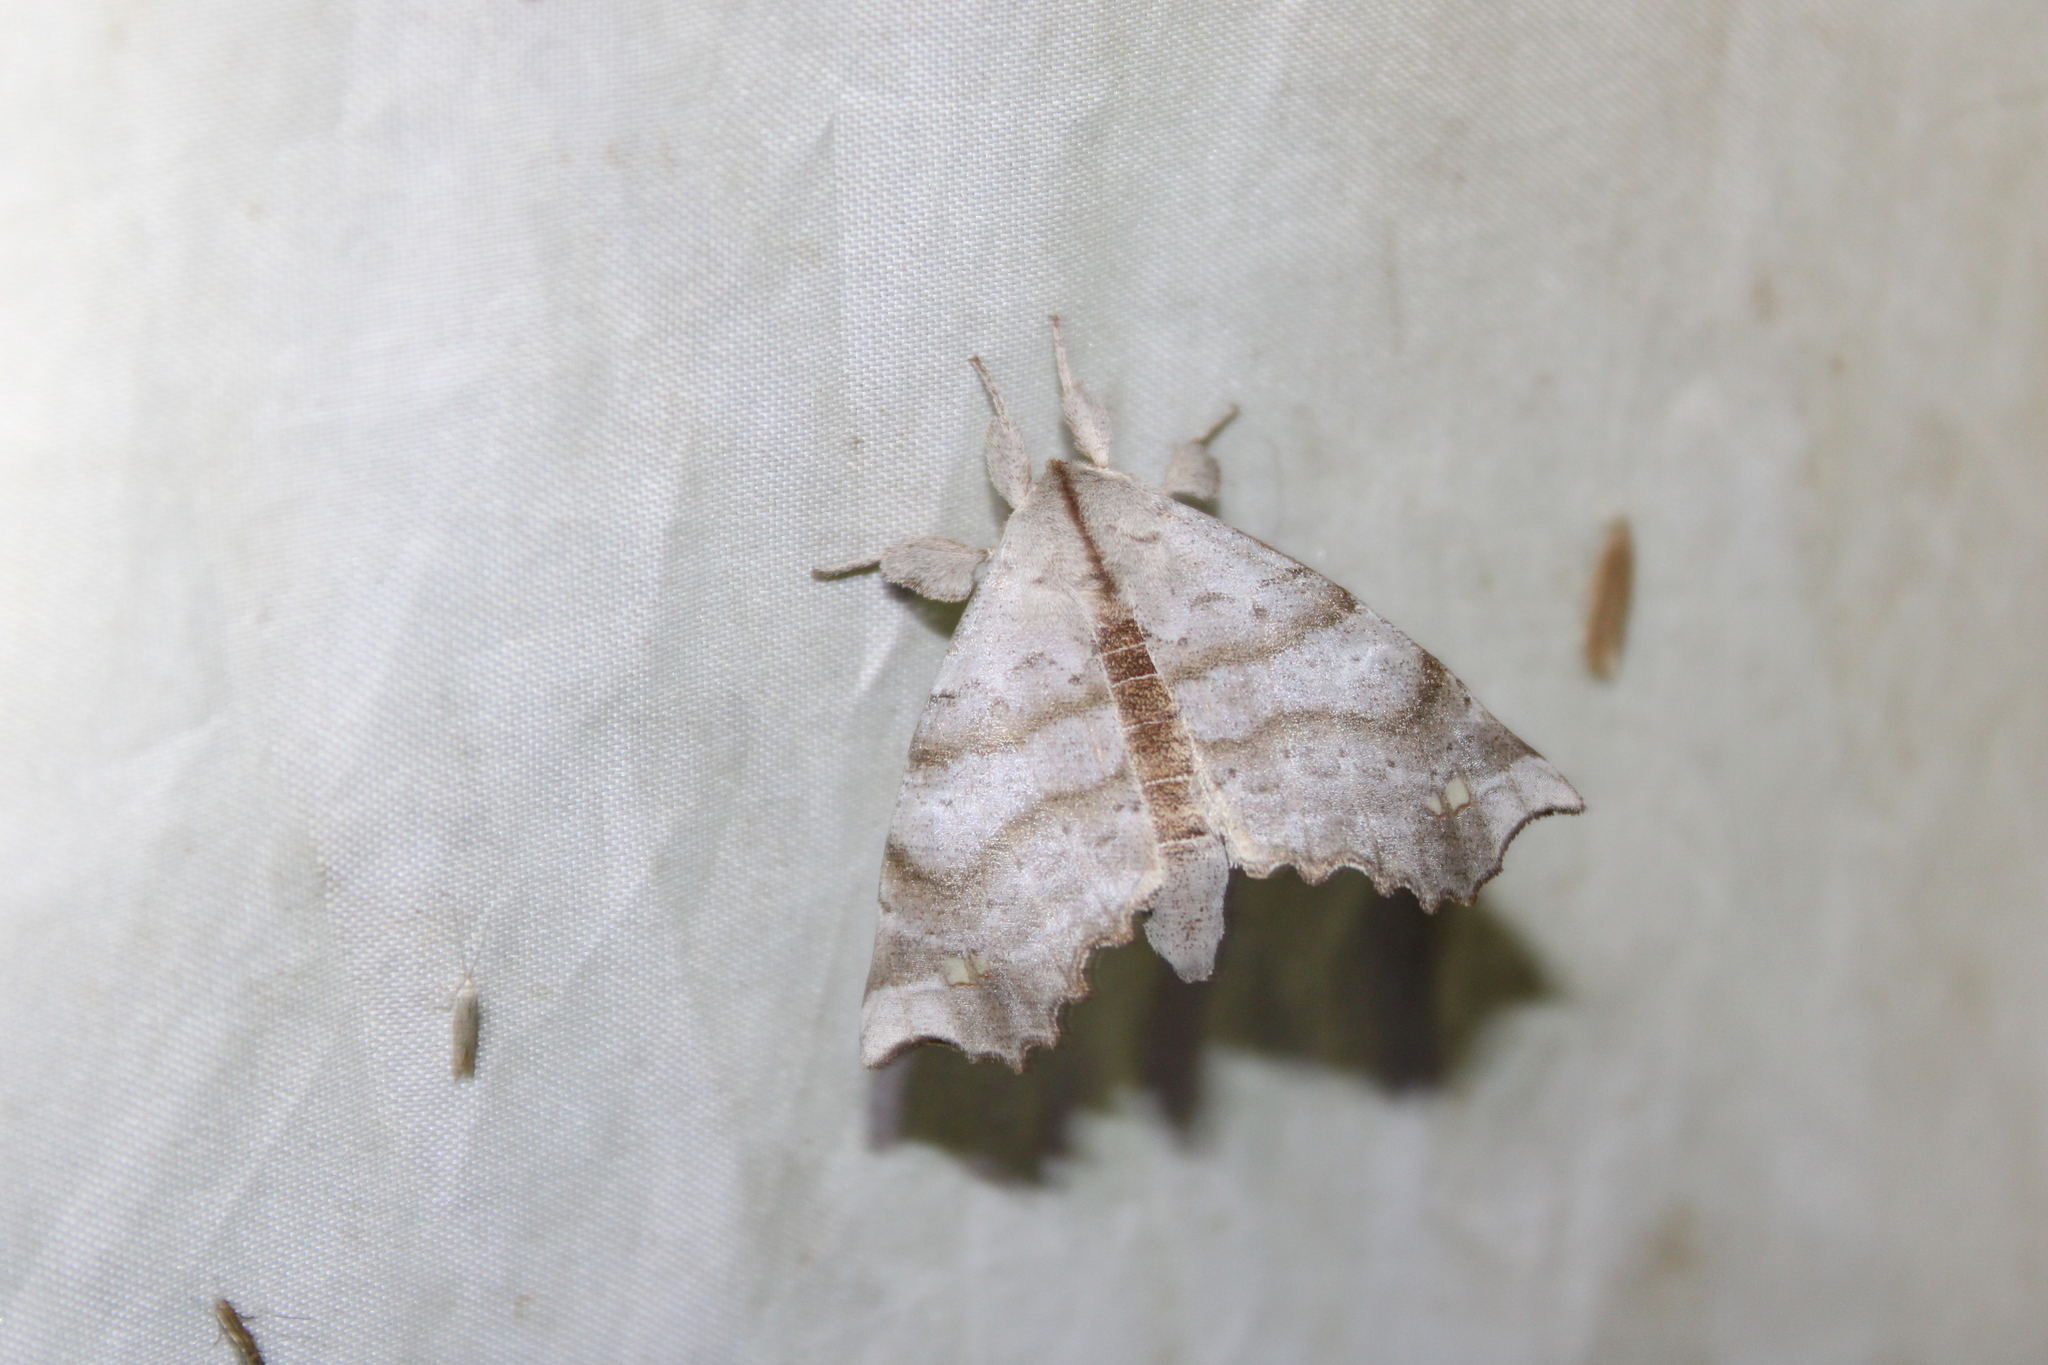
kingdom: Animalia
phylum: Arthropoda
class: Insecta
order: Lepidoptera
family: Apatelodidae
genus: Olceclostera
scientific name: Olceclostera angelica
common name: Angel moth
